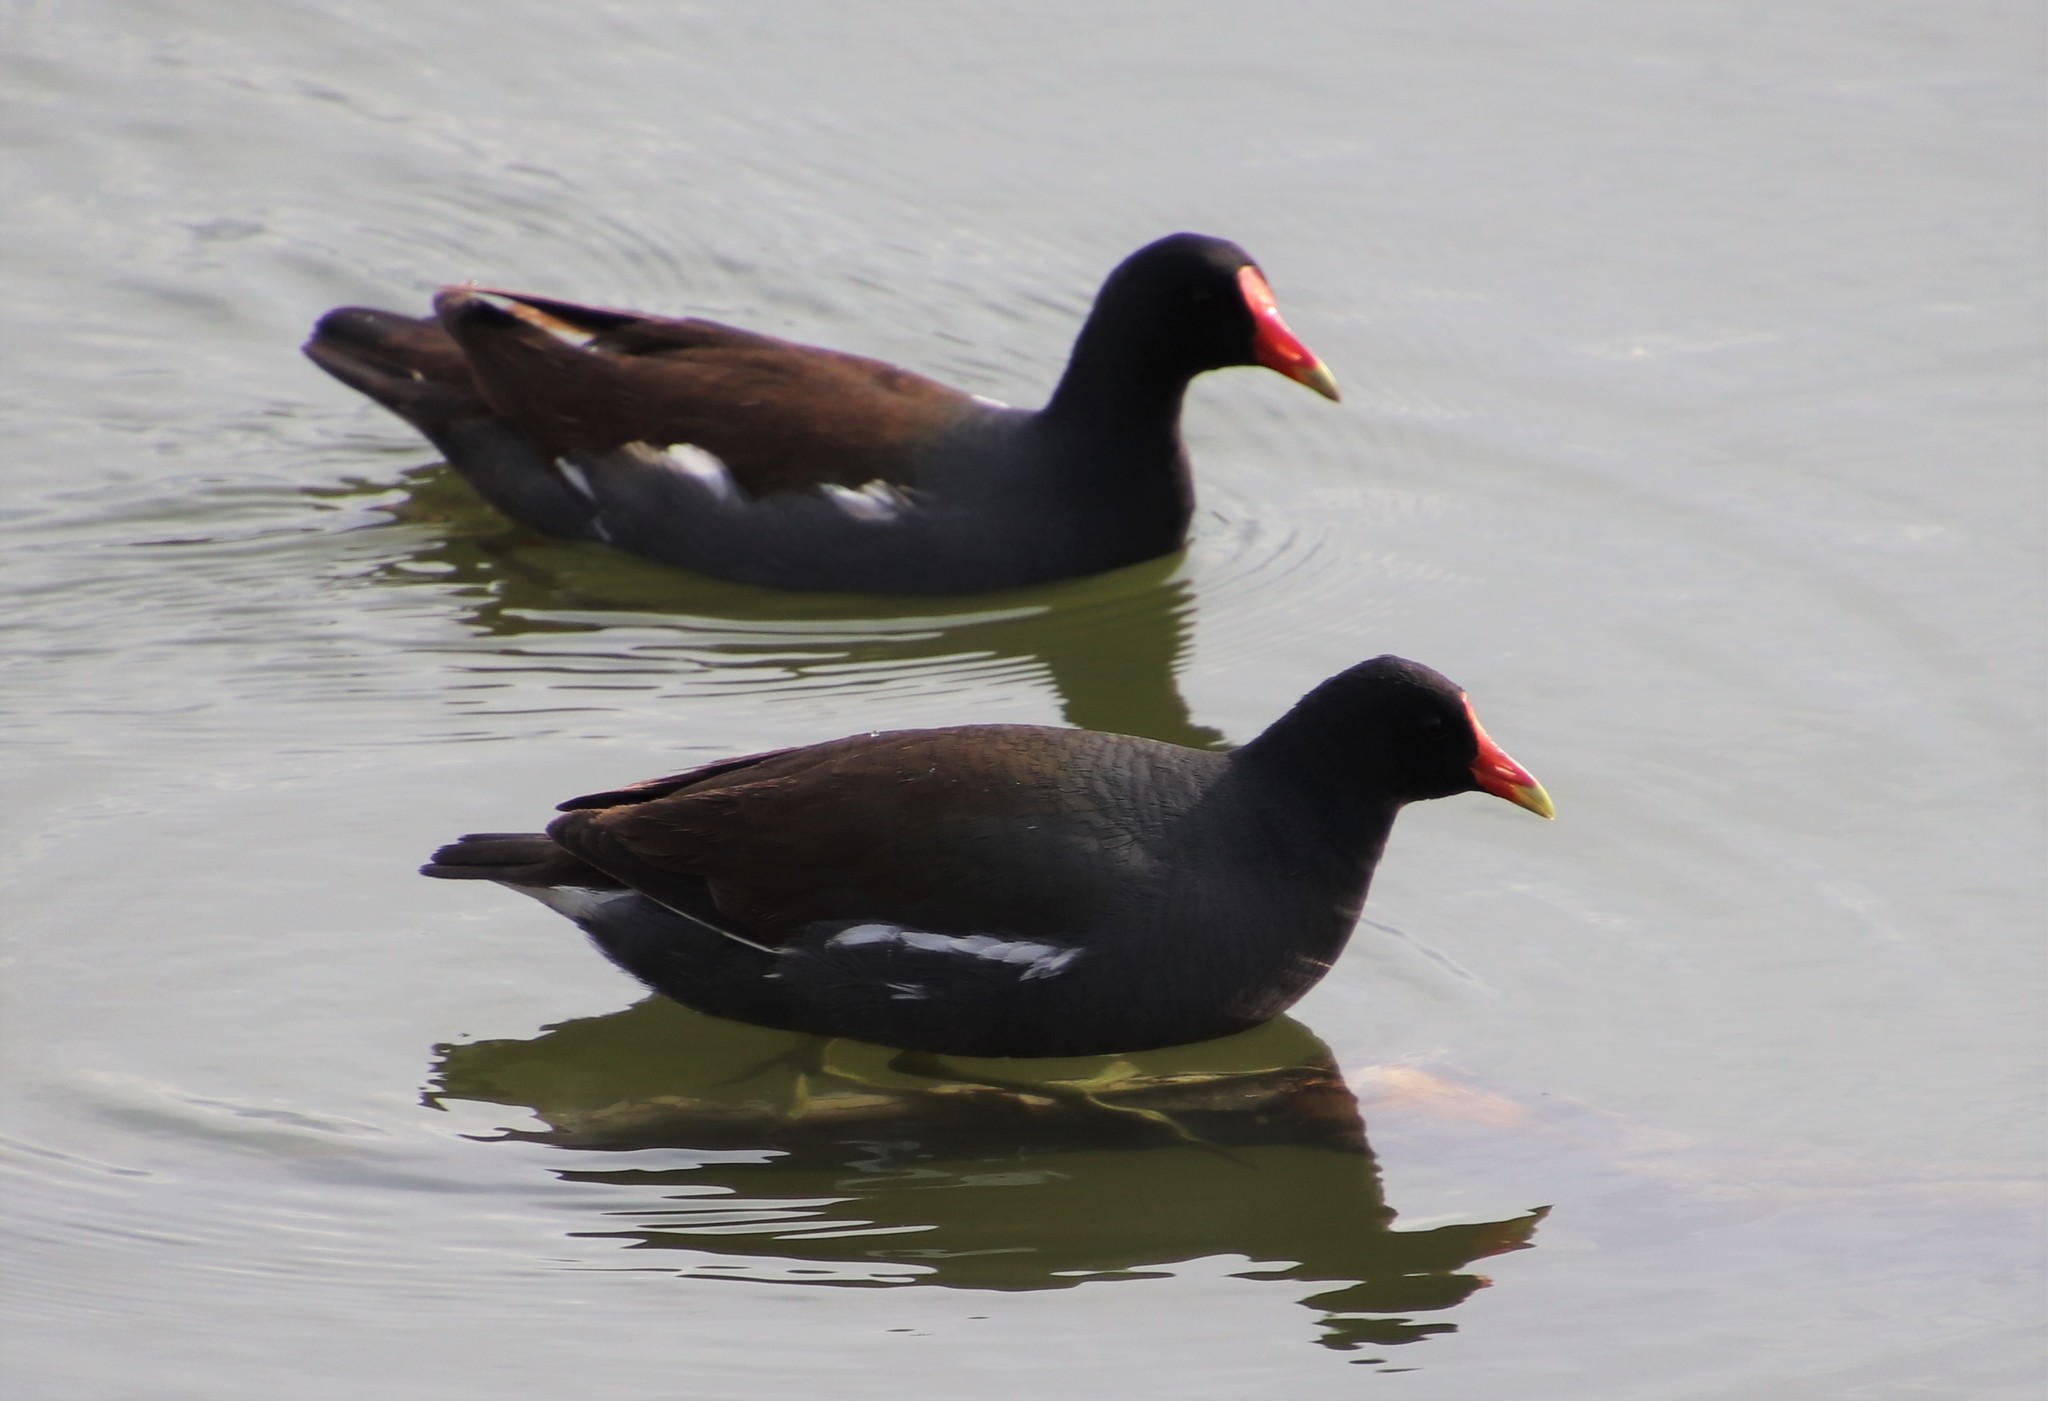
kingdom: Animalia
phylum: Chordata
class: Aves
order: Gruiformes
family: Rallidae
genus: Gallinula
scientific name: Gallinula chloropus
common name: Common moorhen
